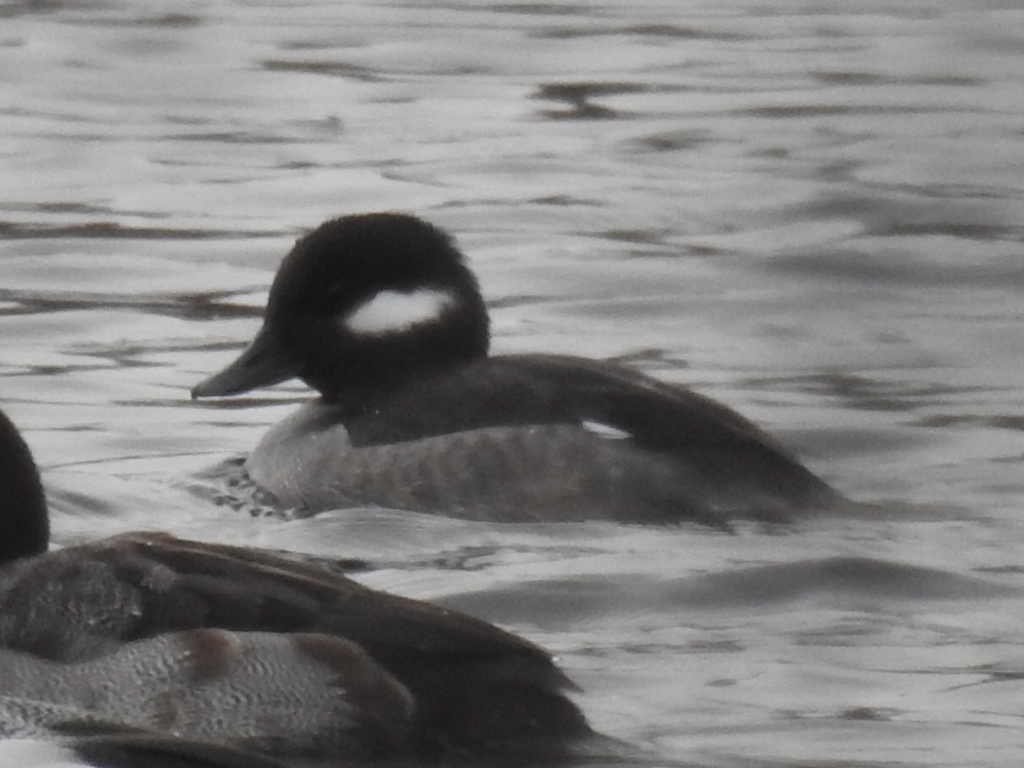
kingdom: Animalia
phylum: Chordata
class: Aves
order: Anseriformes
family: Anatidae
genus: Bucephala
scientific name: Bucephala albeola
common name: Bufflehead
